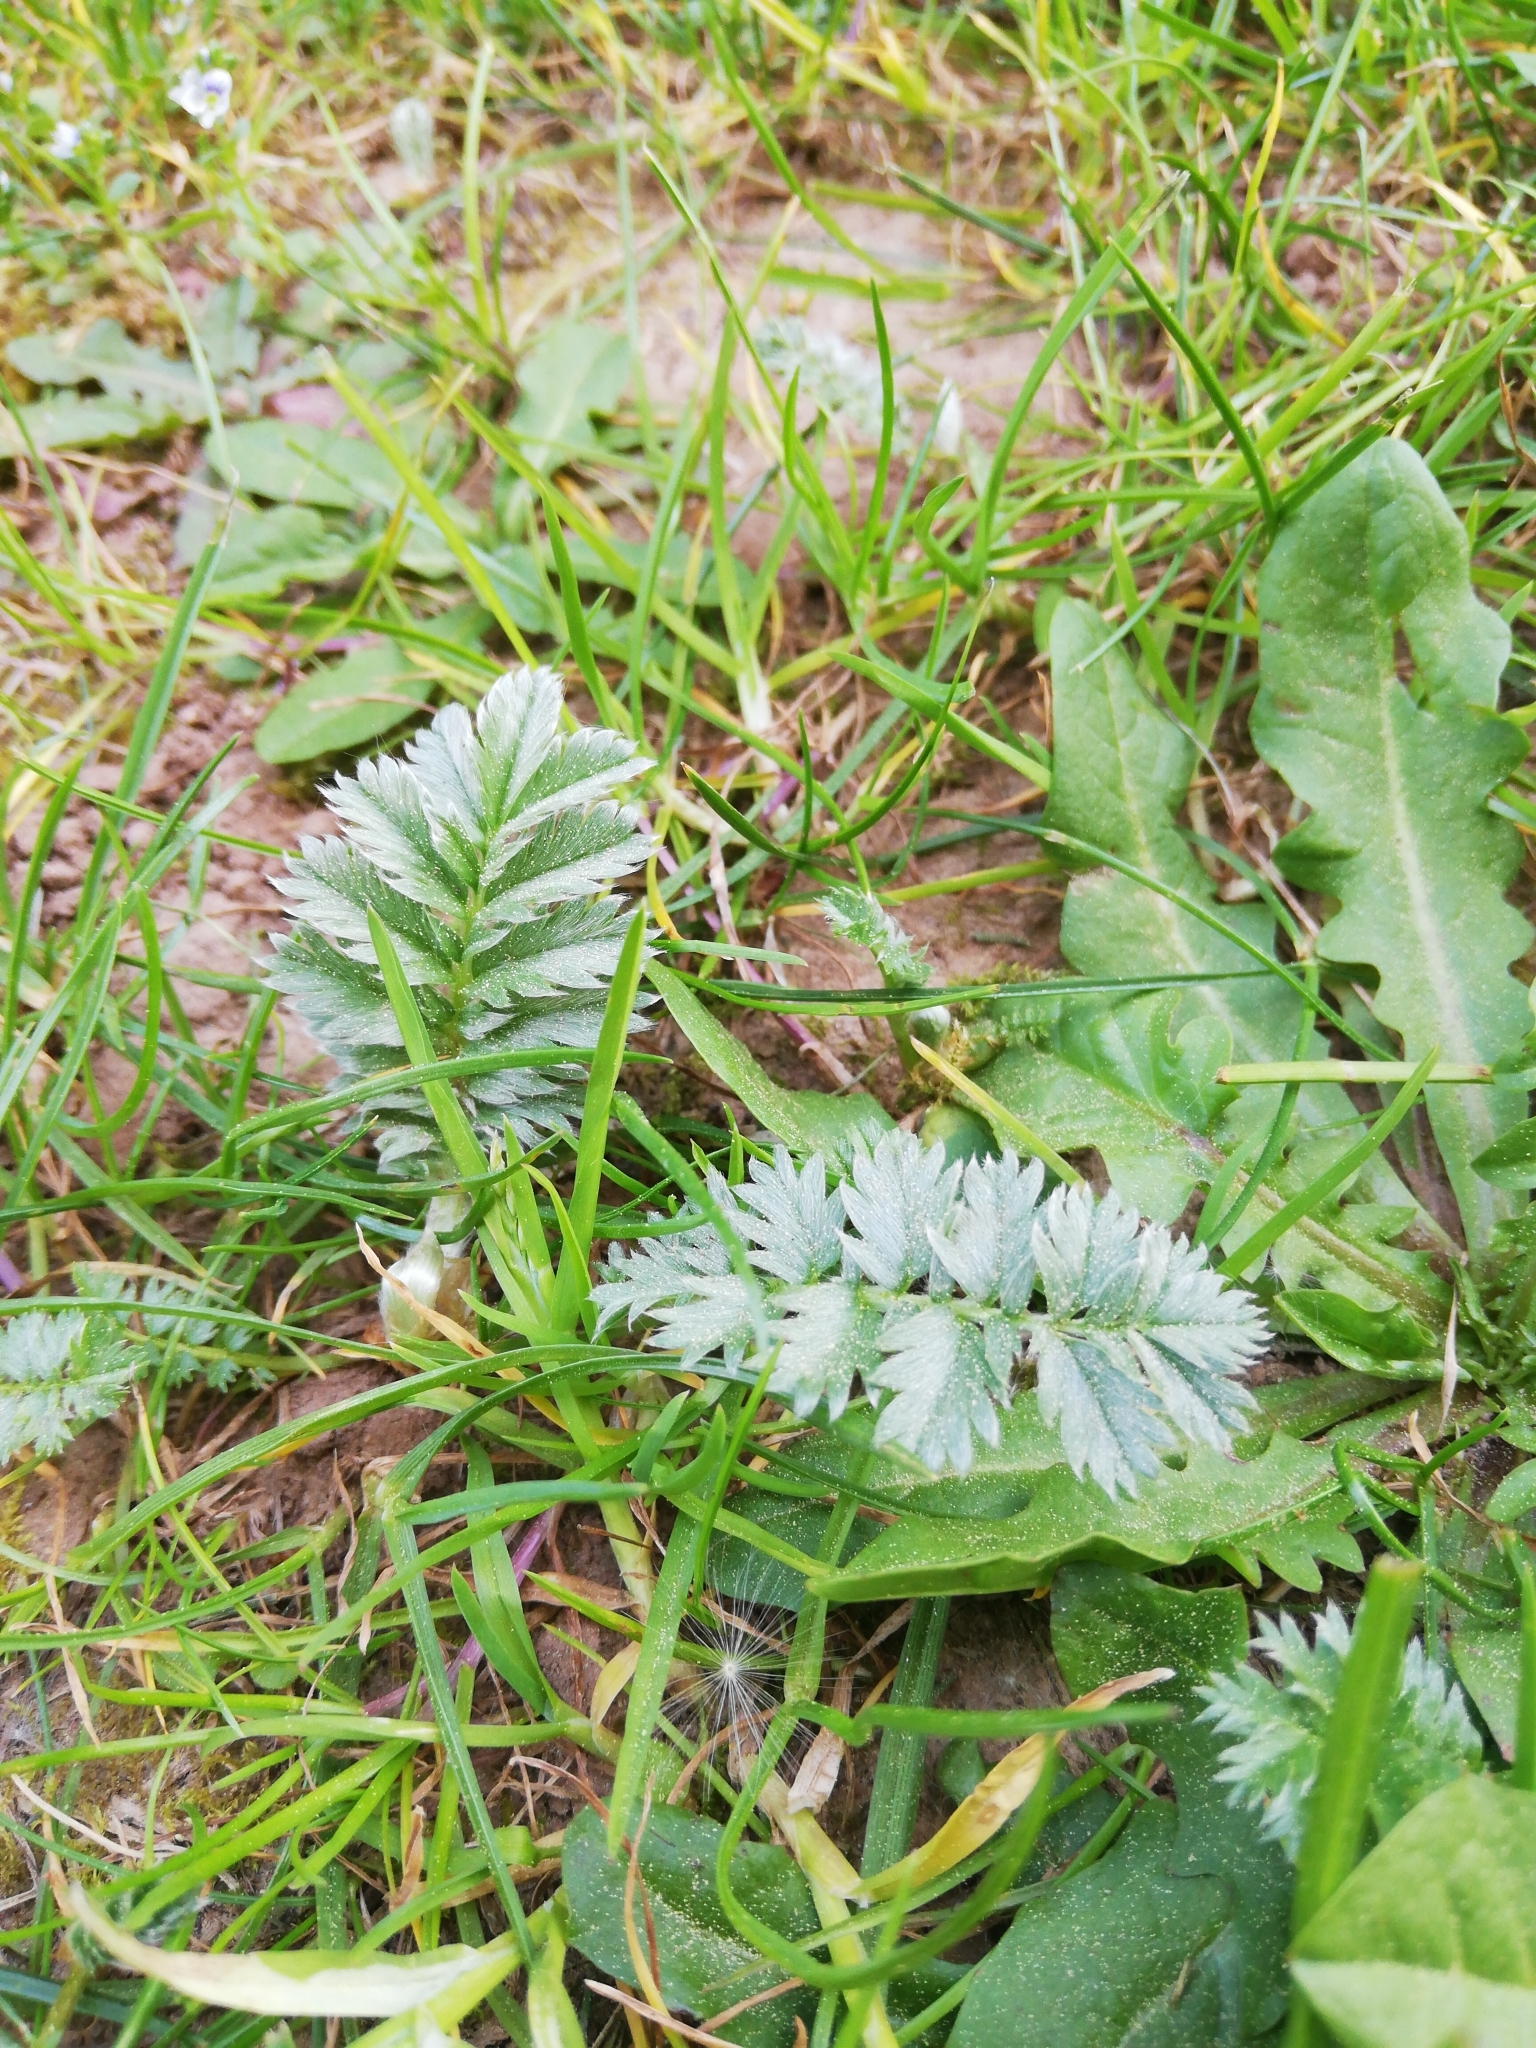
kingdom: Plantae
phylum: Tracheophyta
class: Magnoliopsida
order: Rosales
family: Rosaceae
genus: Argentina
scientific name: Argentina anserina
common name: Common silverweed
